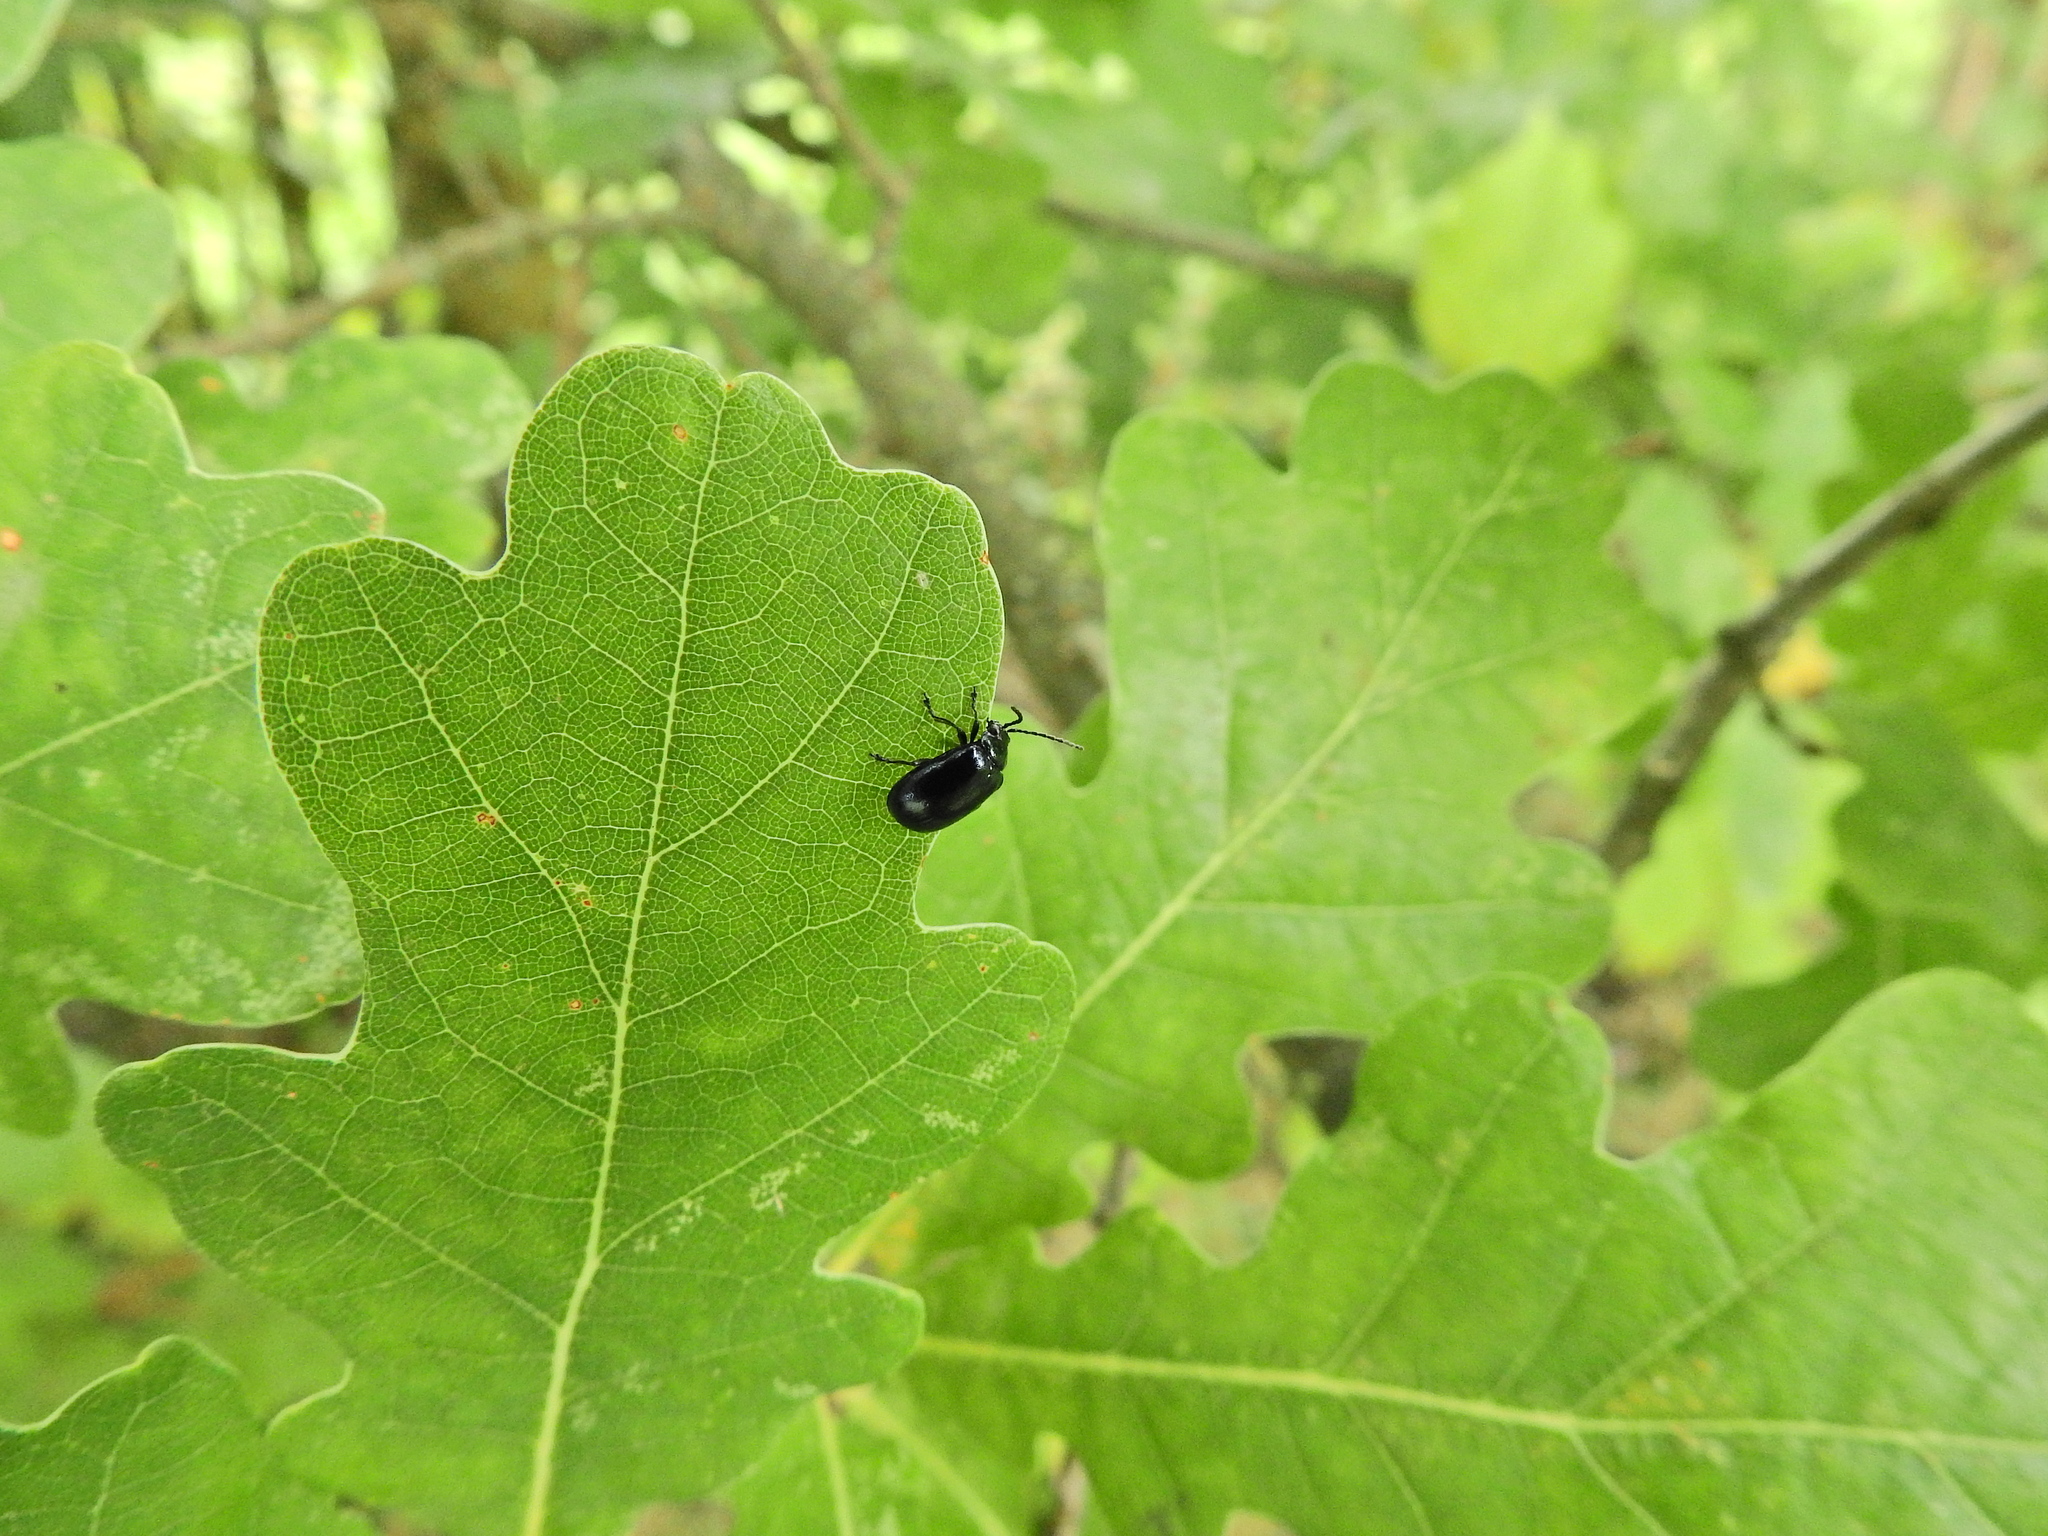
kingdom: Animalia
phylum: Arthropoda
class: Insecta
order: Coleoptera
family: Chrysomelidae
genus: Agelastica
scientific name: Agelastica alni
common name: Alder leaf beetle
